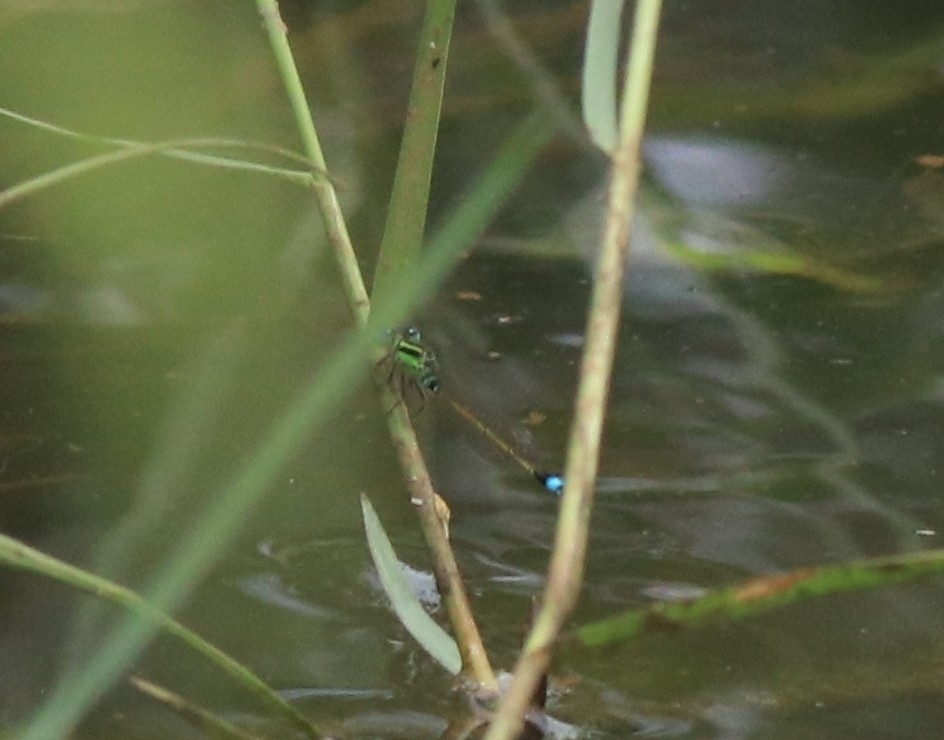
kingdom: Animalia
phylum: Arthropoda
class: Insecta
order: Odonata
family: Coenagrionidae
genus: Ischnura
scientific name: Ischnura senegalensis
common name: Tropical bluetail
